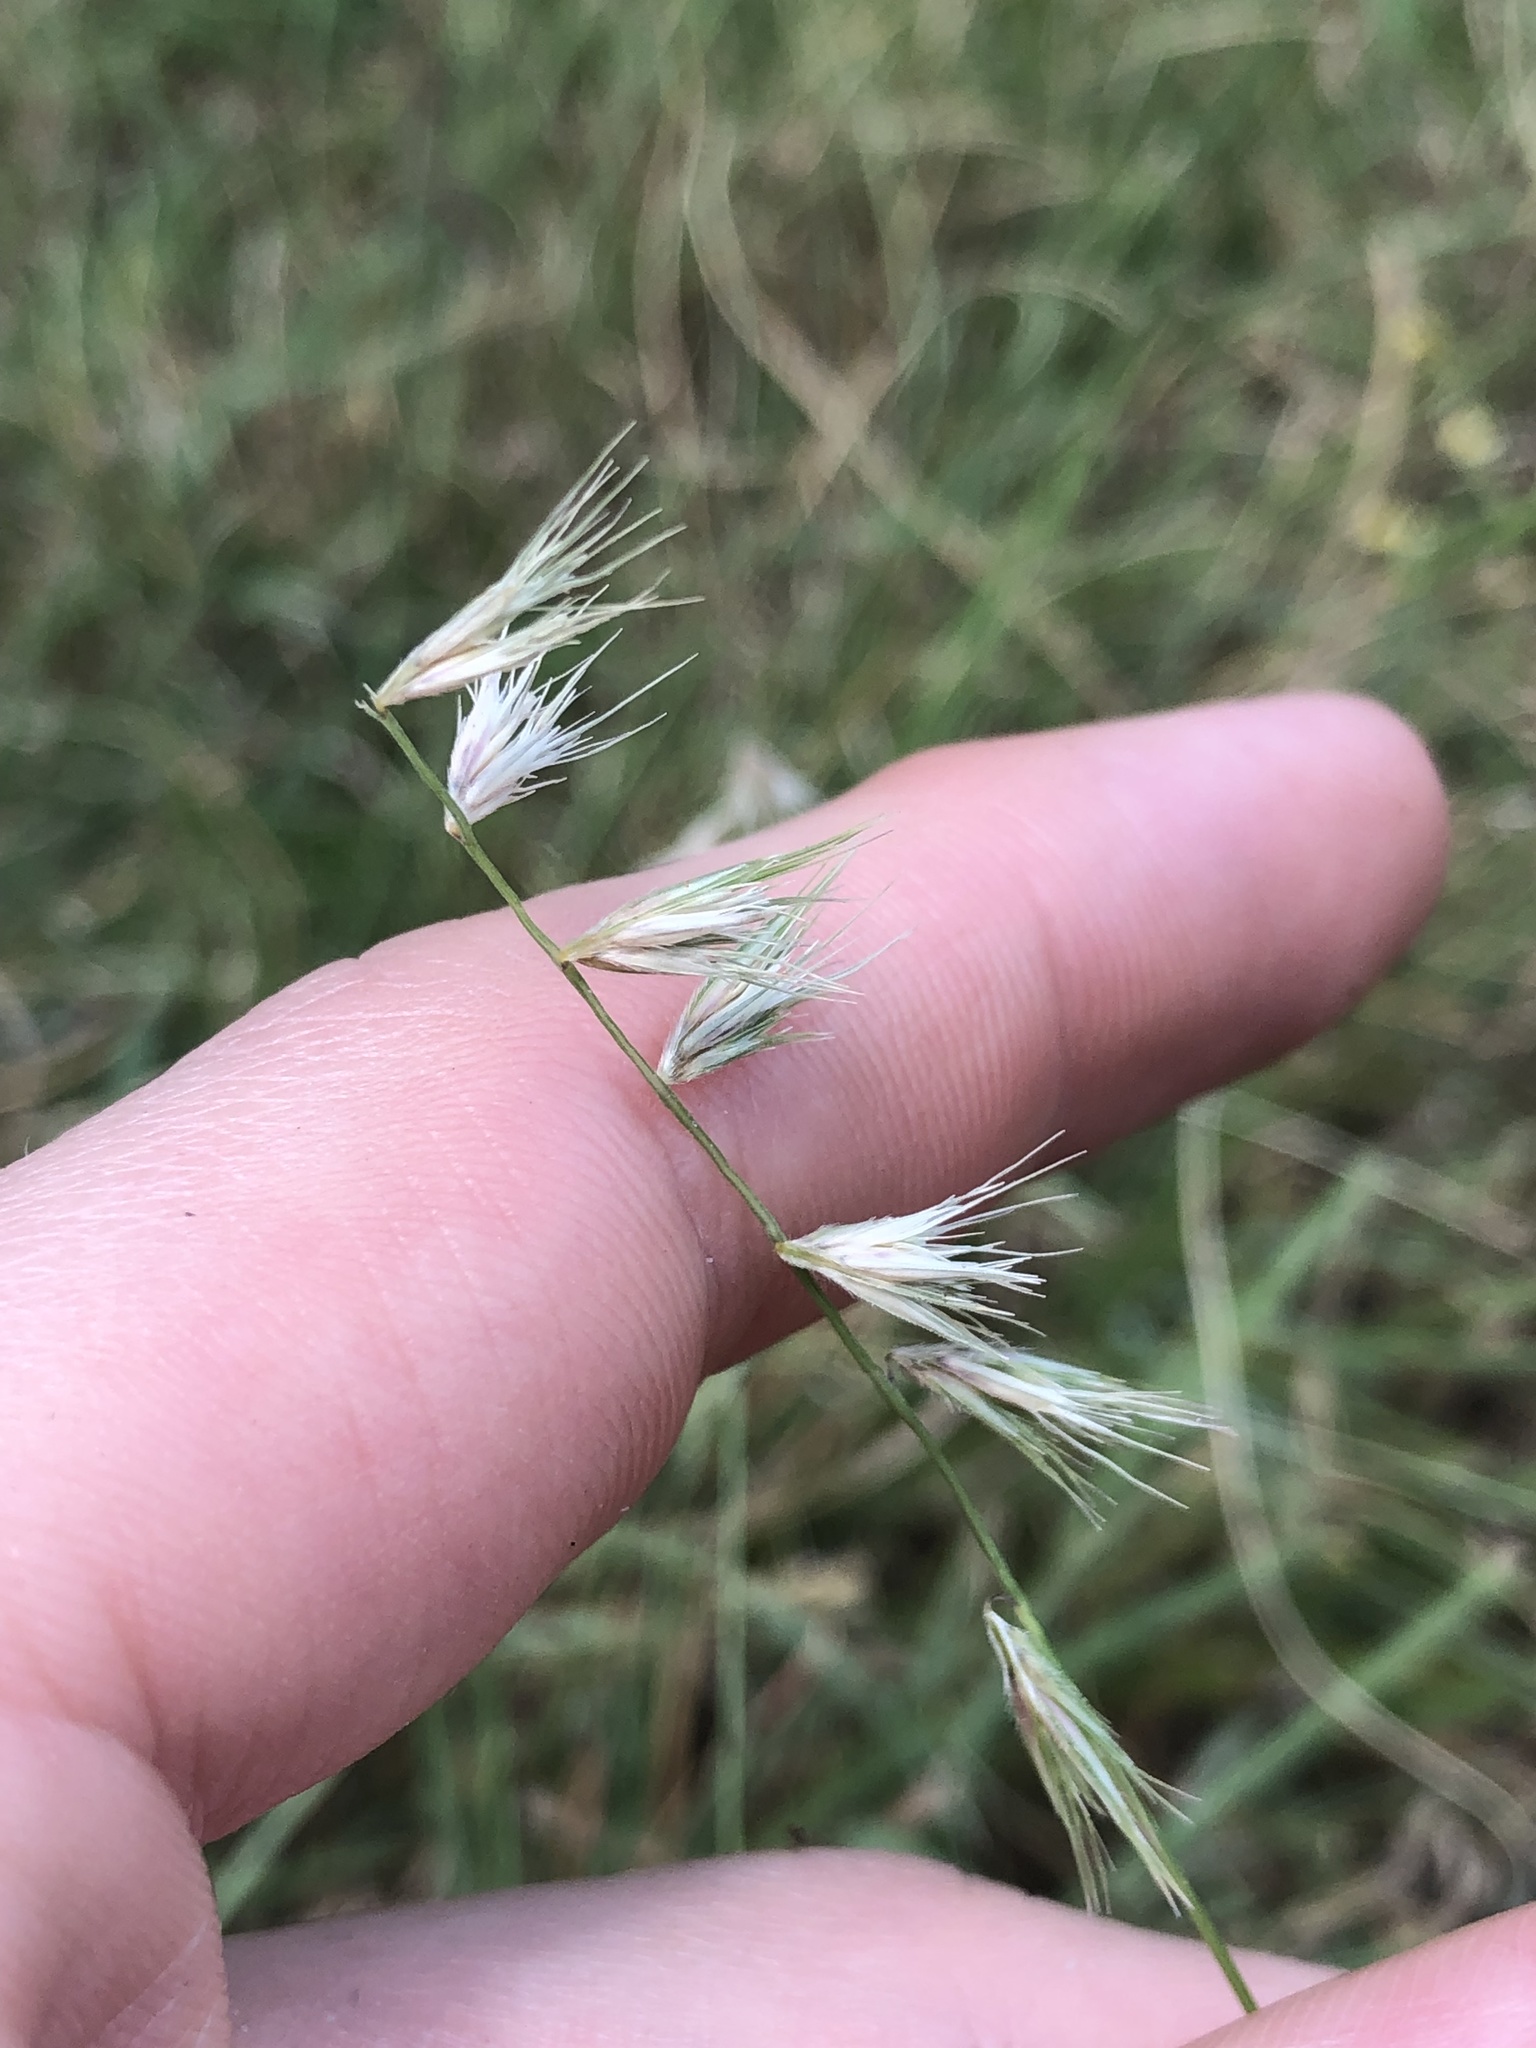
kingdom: Plantae
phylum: Tracheophyta
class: Liliopsida
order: Poales
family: Poaceae
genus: Bouteloua
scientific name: Bouteloua rigidiseta
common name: Texas grama
